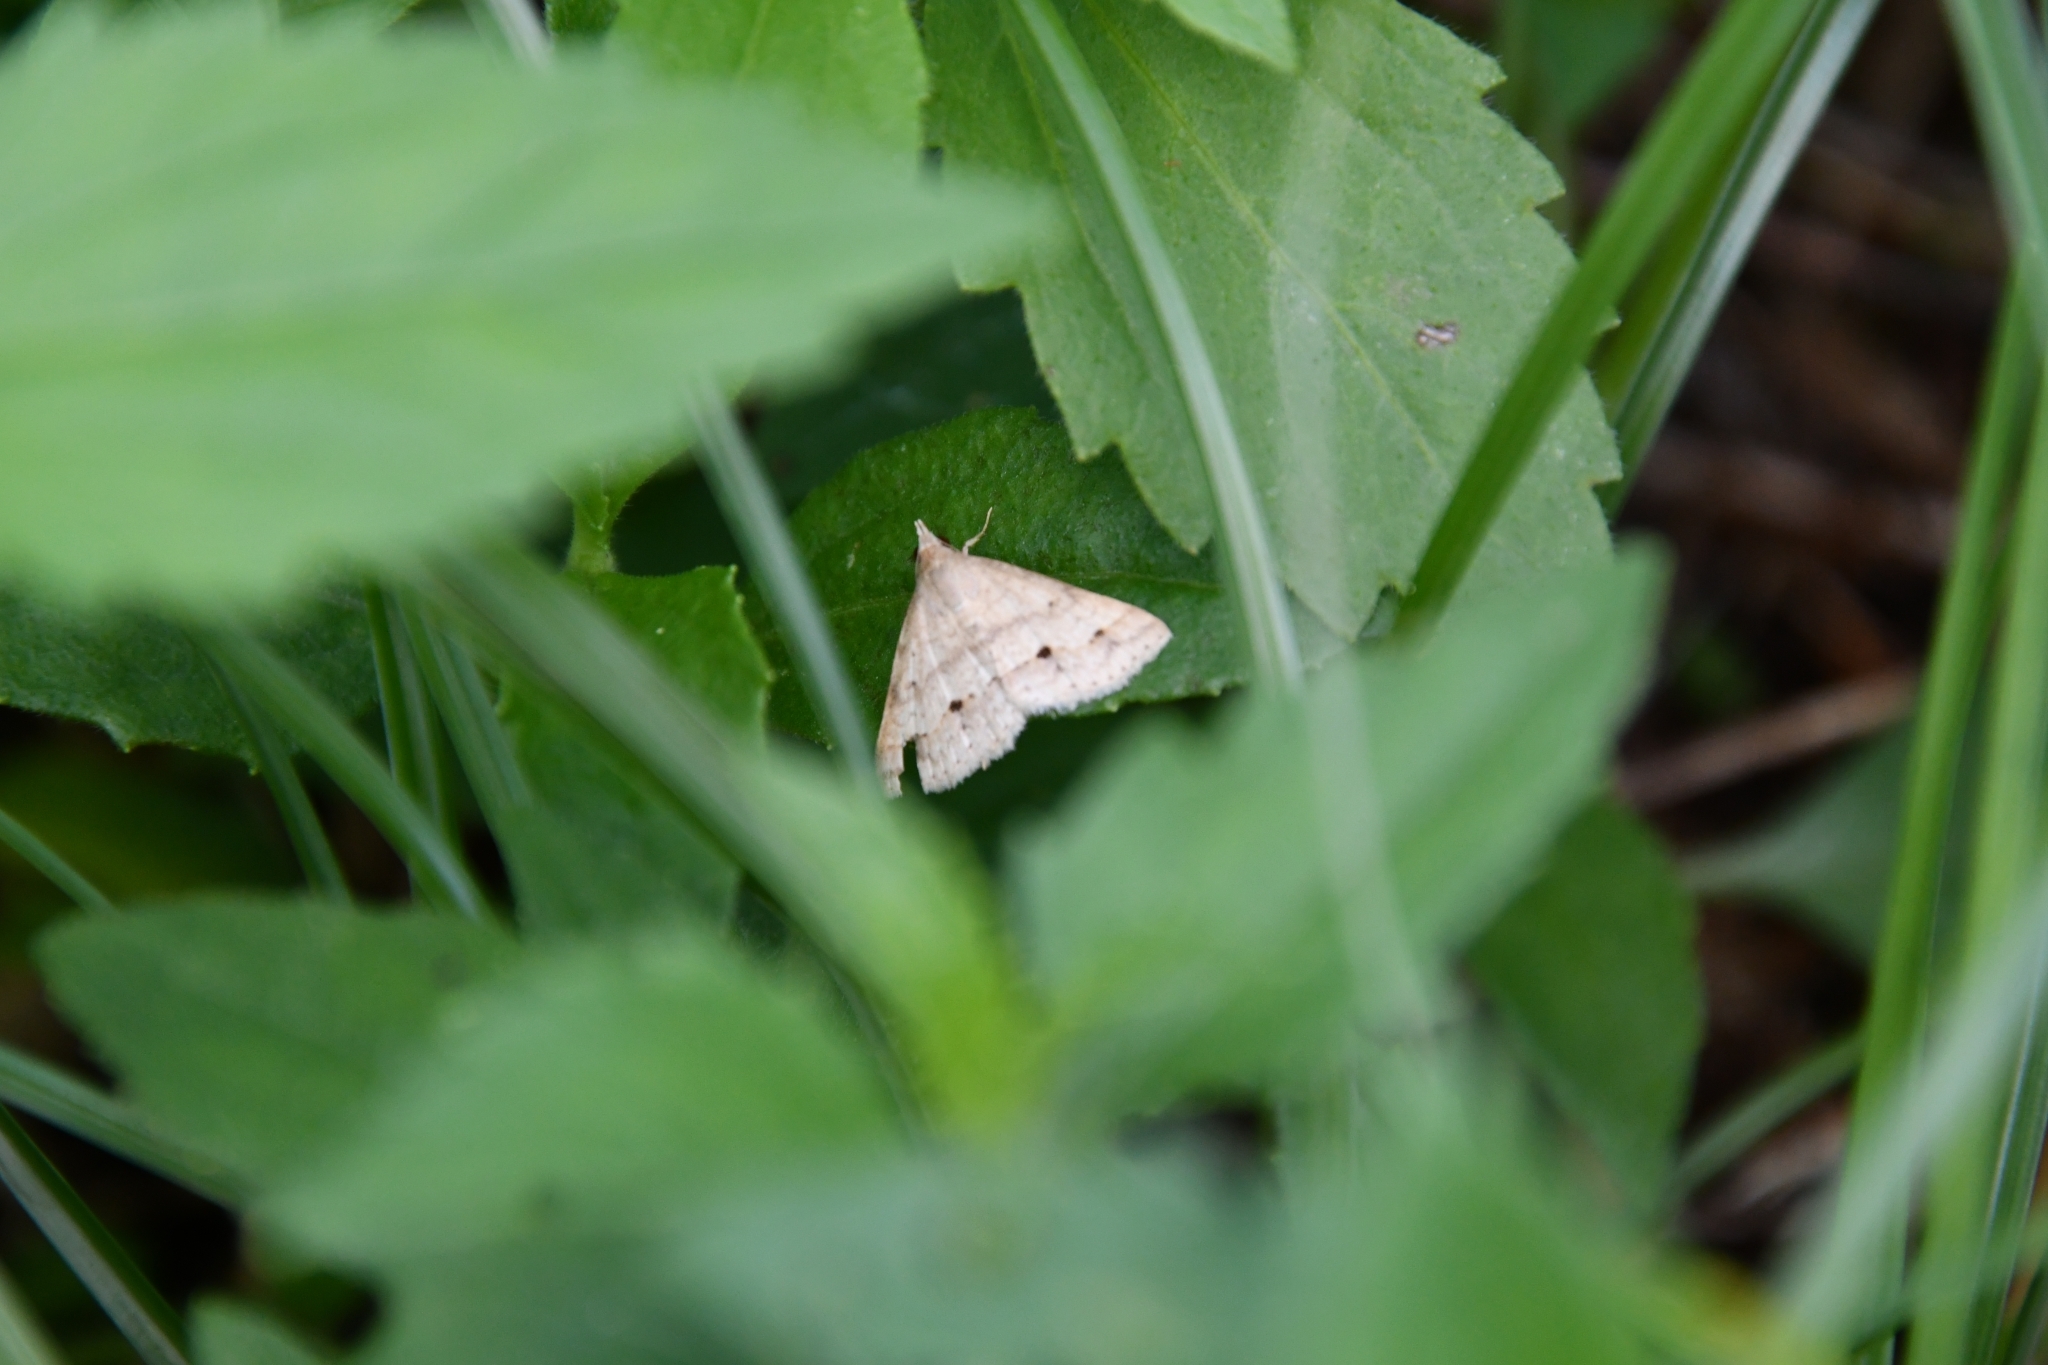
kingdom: Animalia
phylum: Arthropoda
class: Insecta
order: Lepidoptera
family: Erebidae
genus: Gesonia
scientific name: Gesonia obeditalis
